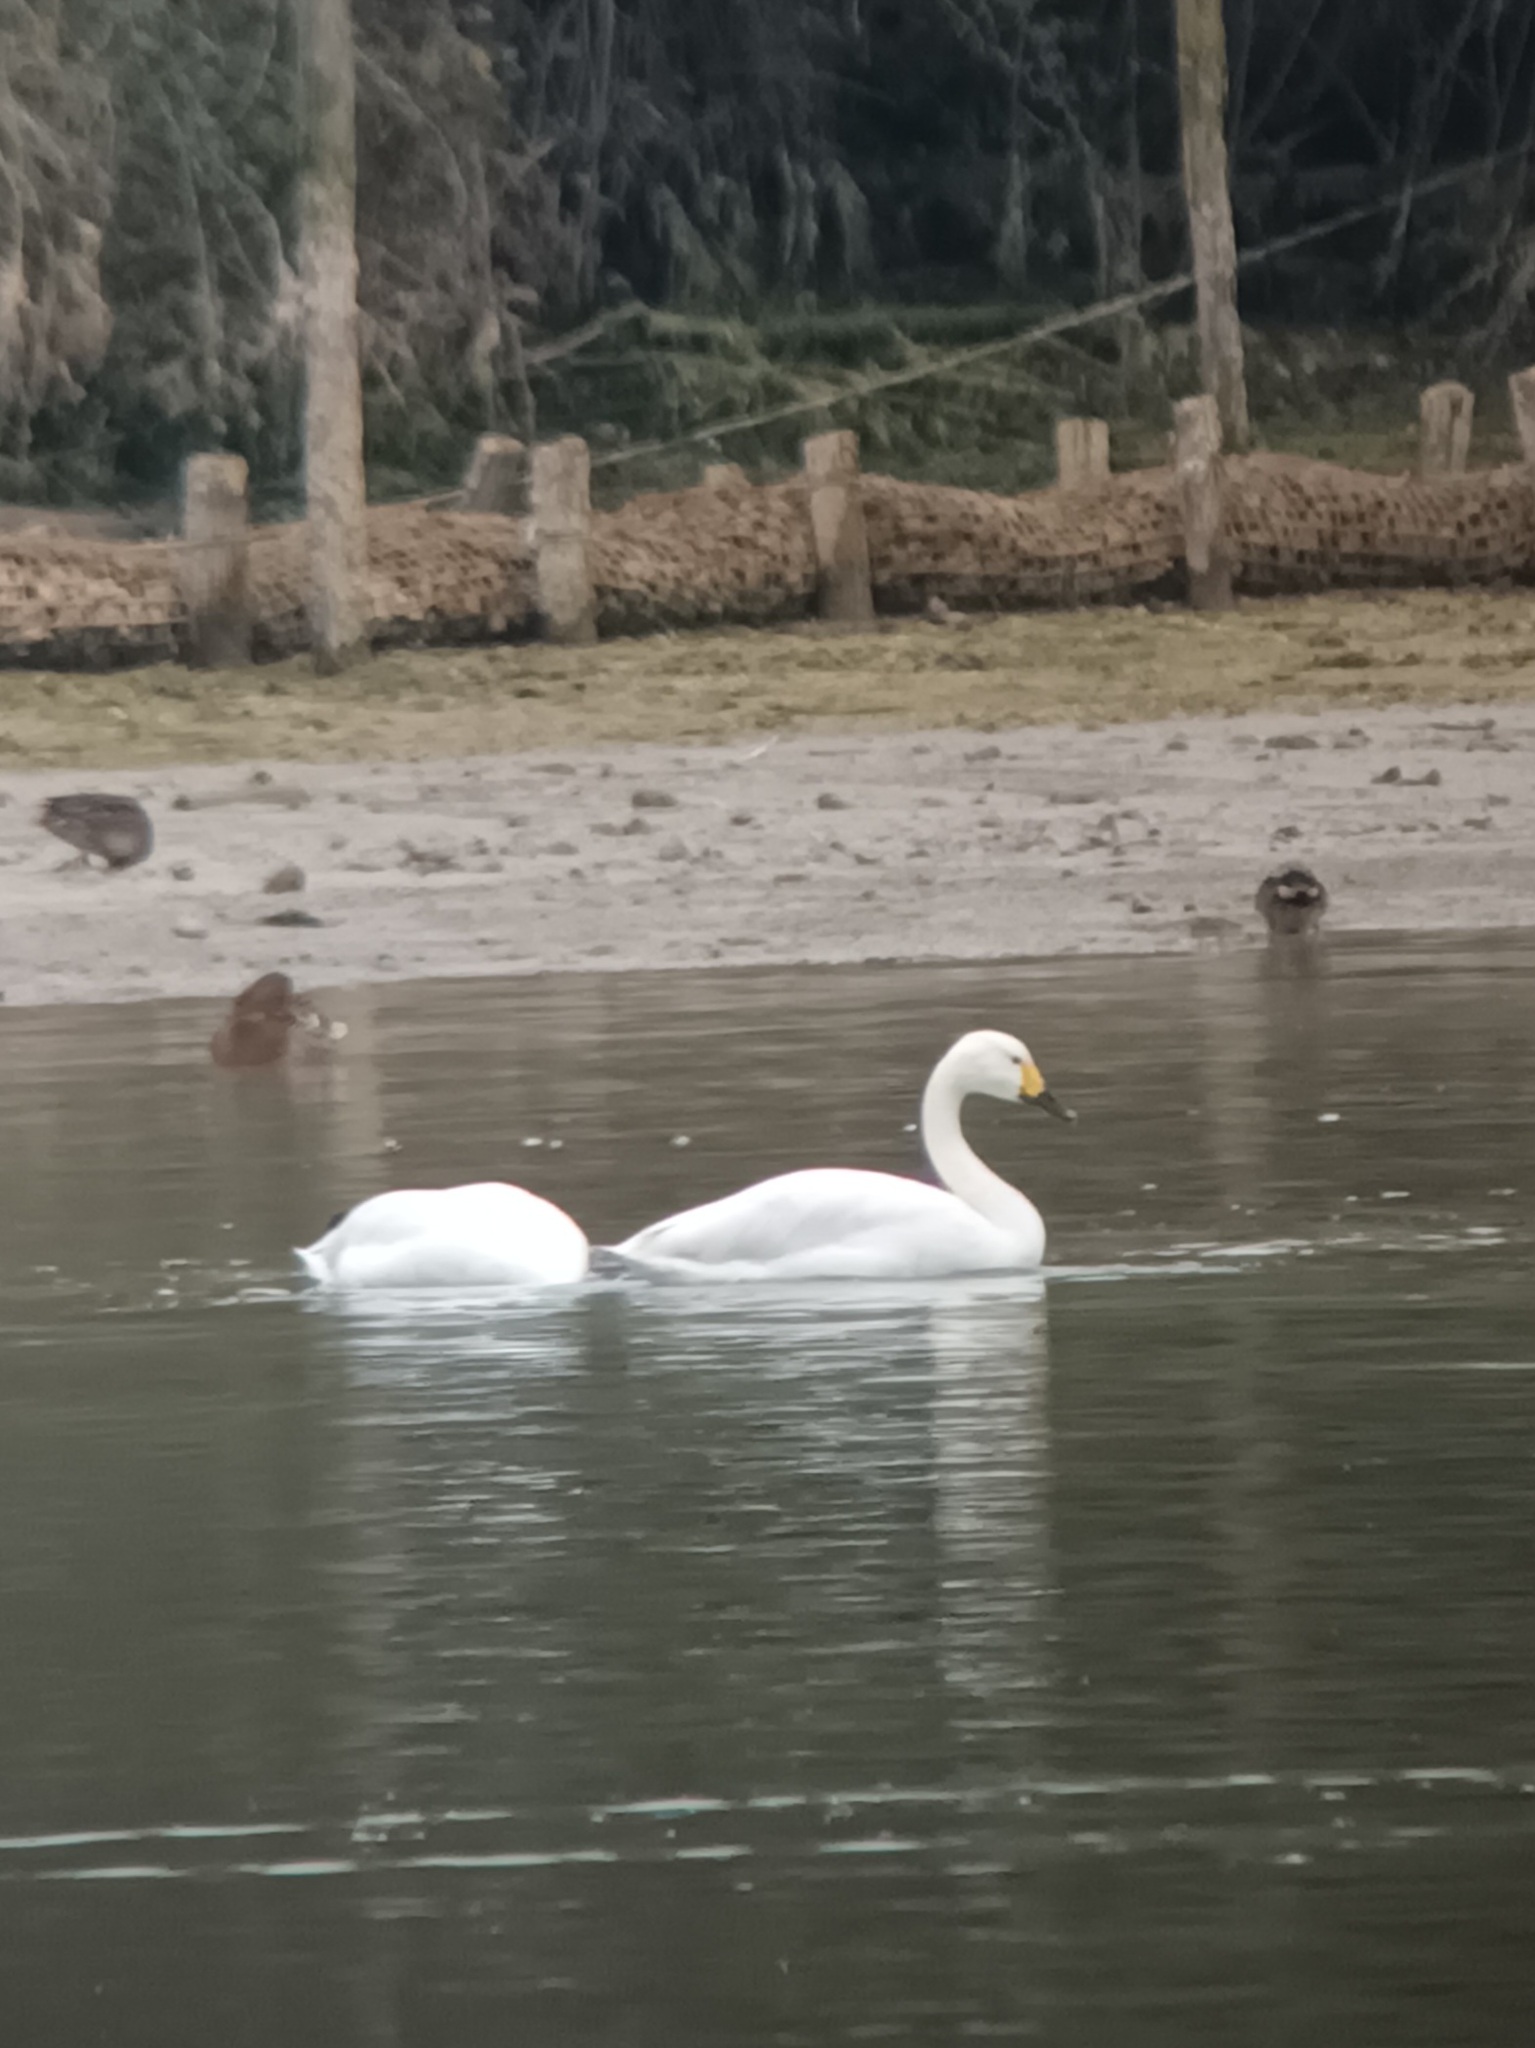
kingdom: Animalia
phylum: Chordata
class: Aves
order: Anseriformes
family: Anatidae
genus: Cygnus
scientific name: Cygnus columbianus
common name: Tundra swan
